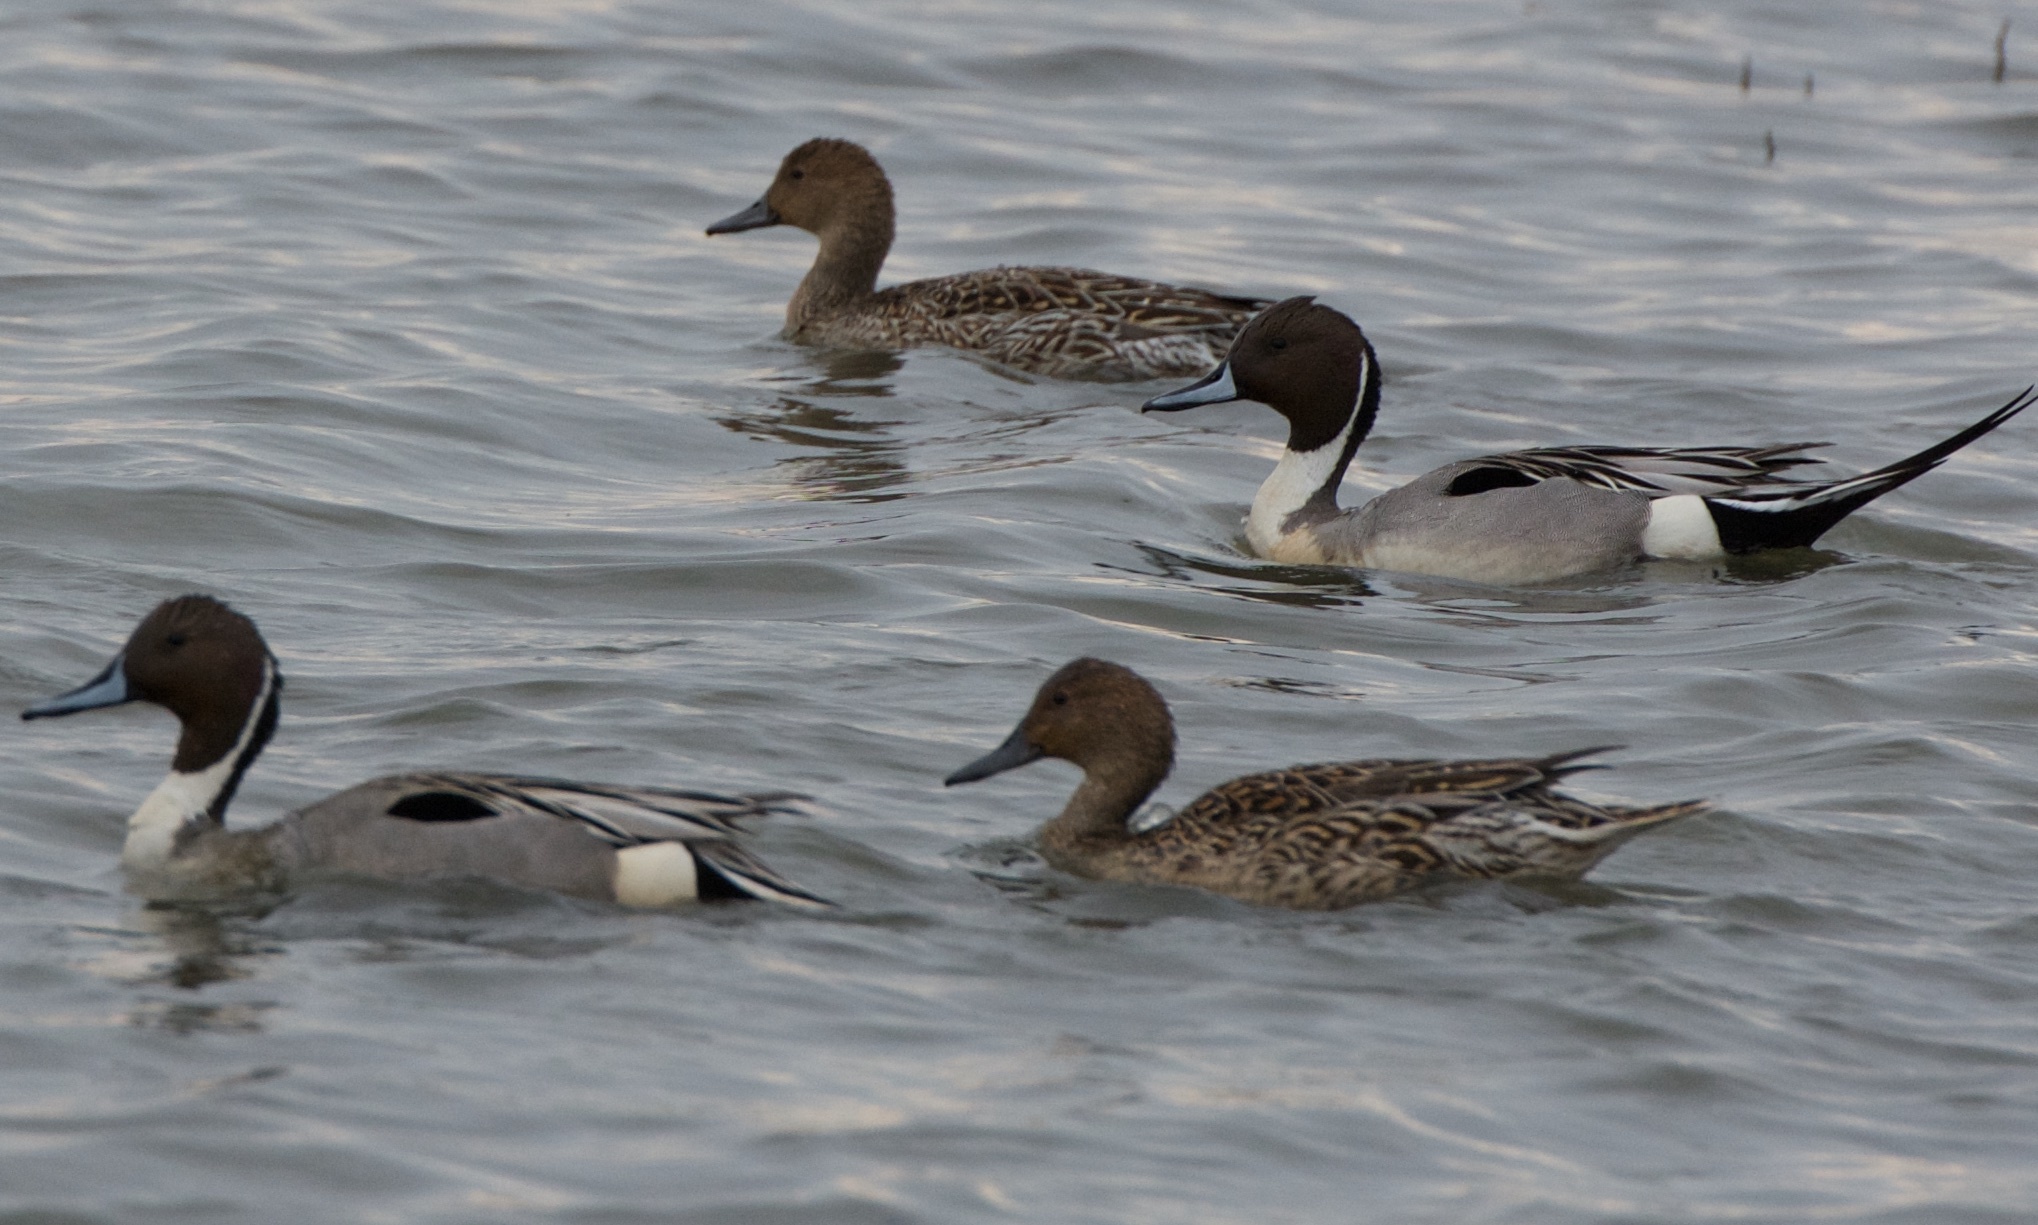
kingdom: Animalia
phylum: Chordata
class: Aves
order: Anseriformes
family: Anatidae
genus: Anas
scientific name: Anas acuta
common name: Northern pintail
